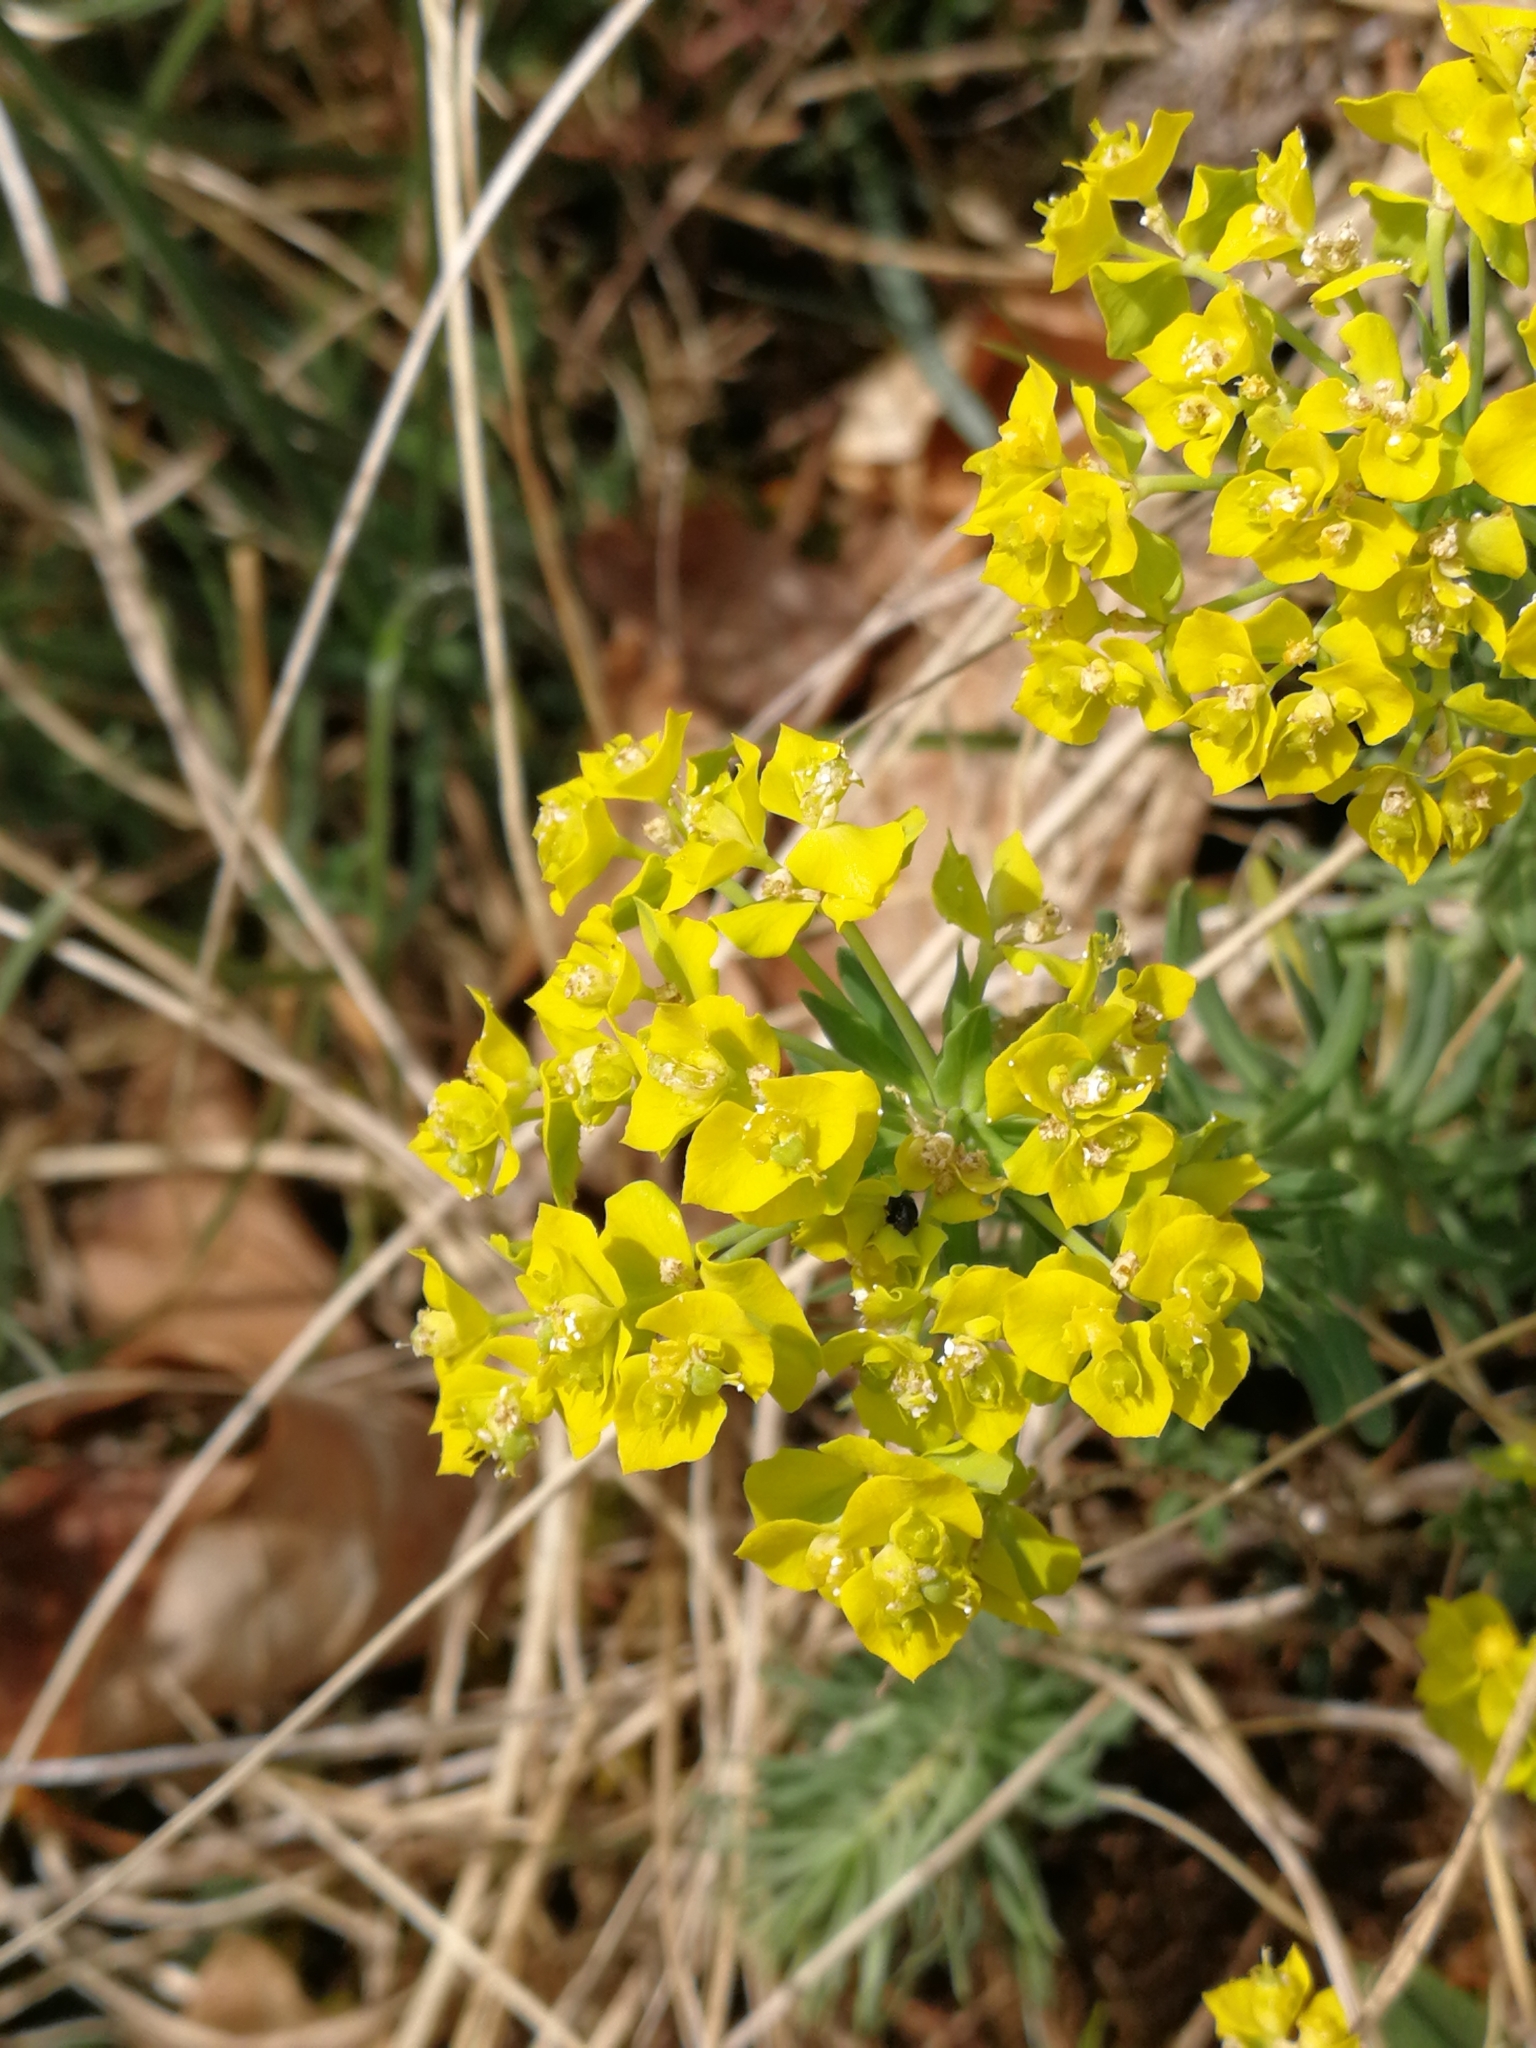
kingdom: Plantae
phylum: Tracheophyta
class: Magnoliopsida
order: Malpighiales
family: Euphorbiaceae
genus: Euphorbia
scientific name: Euphorbia cyparissias
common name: Cypress spurge
